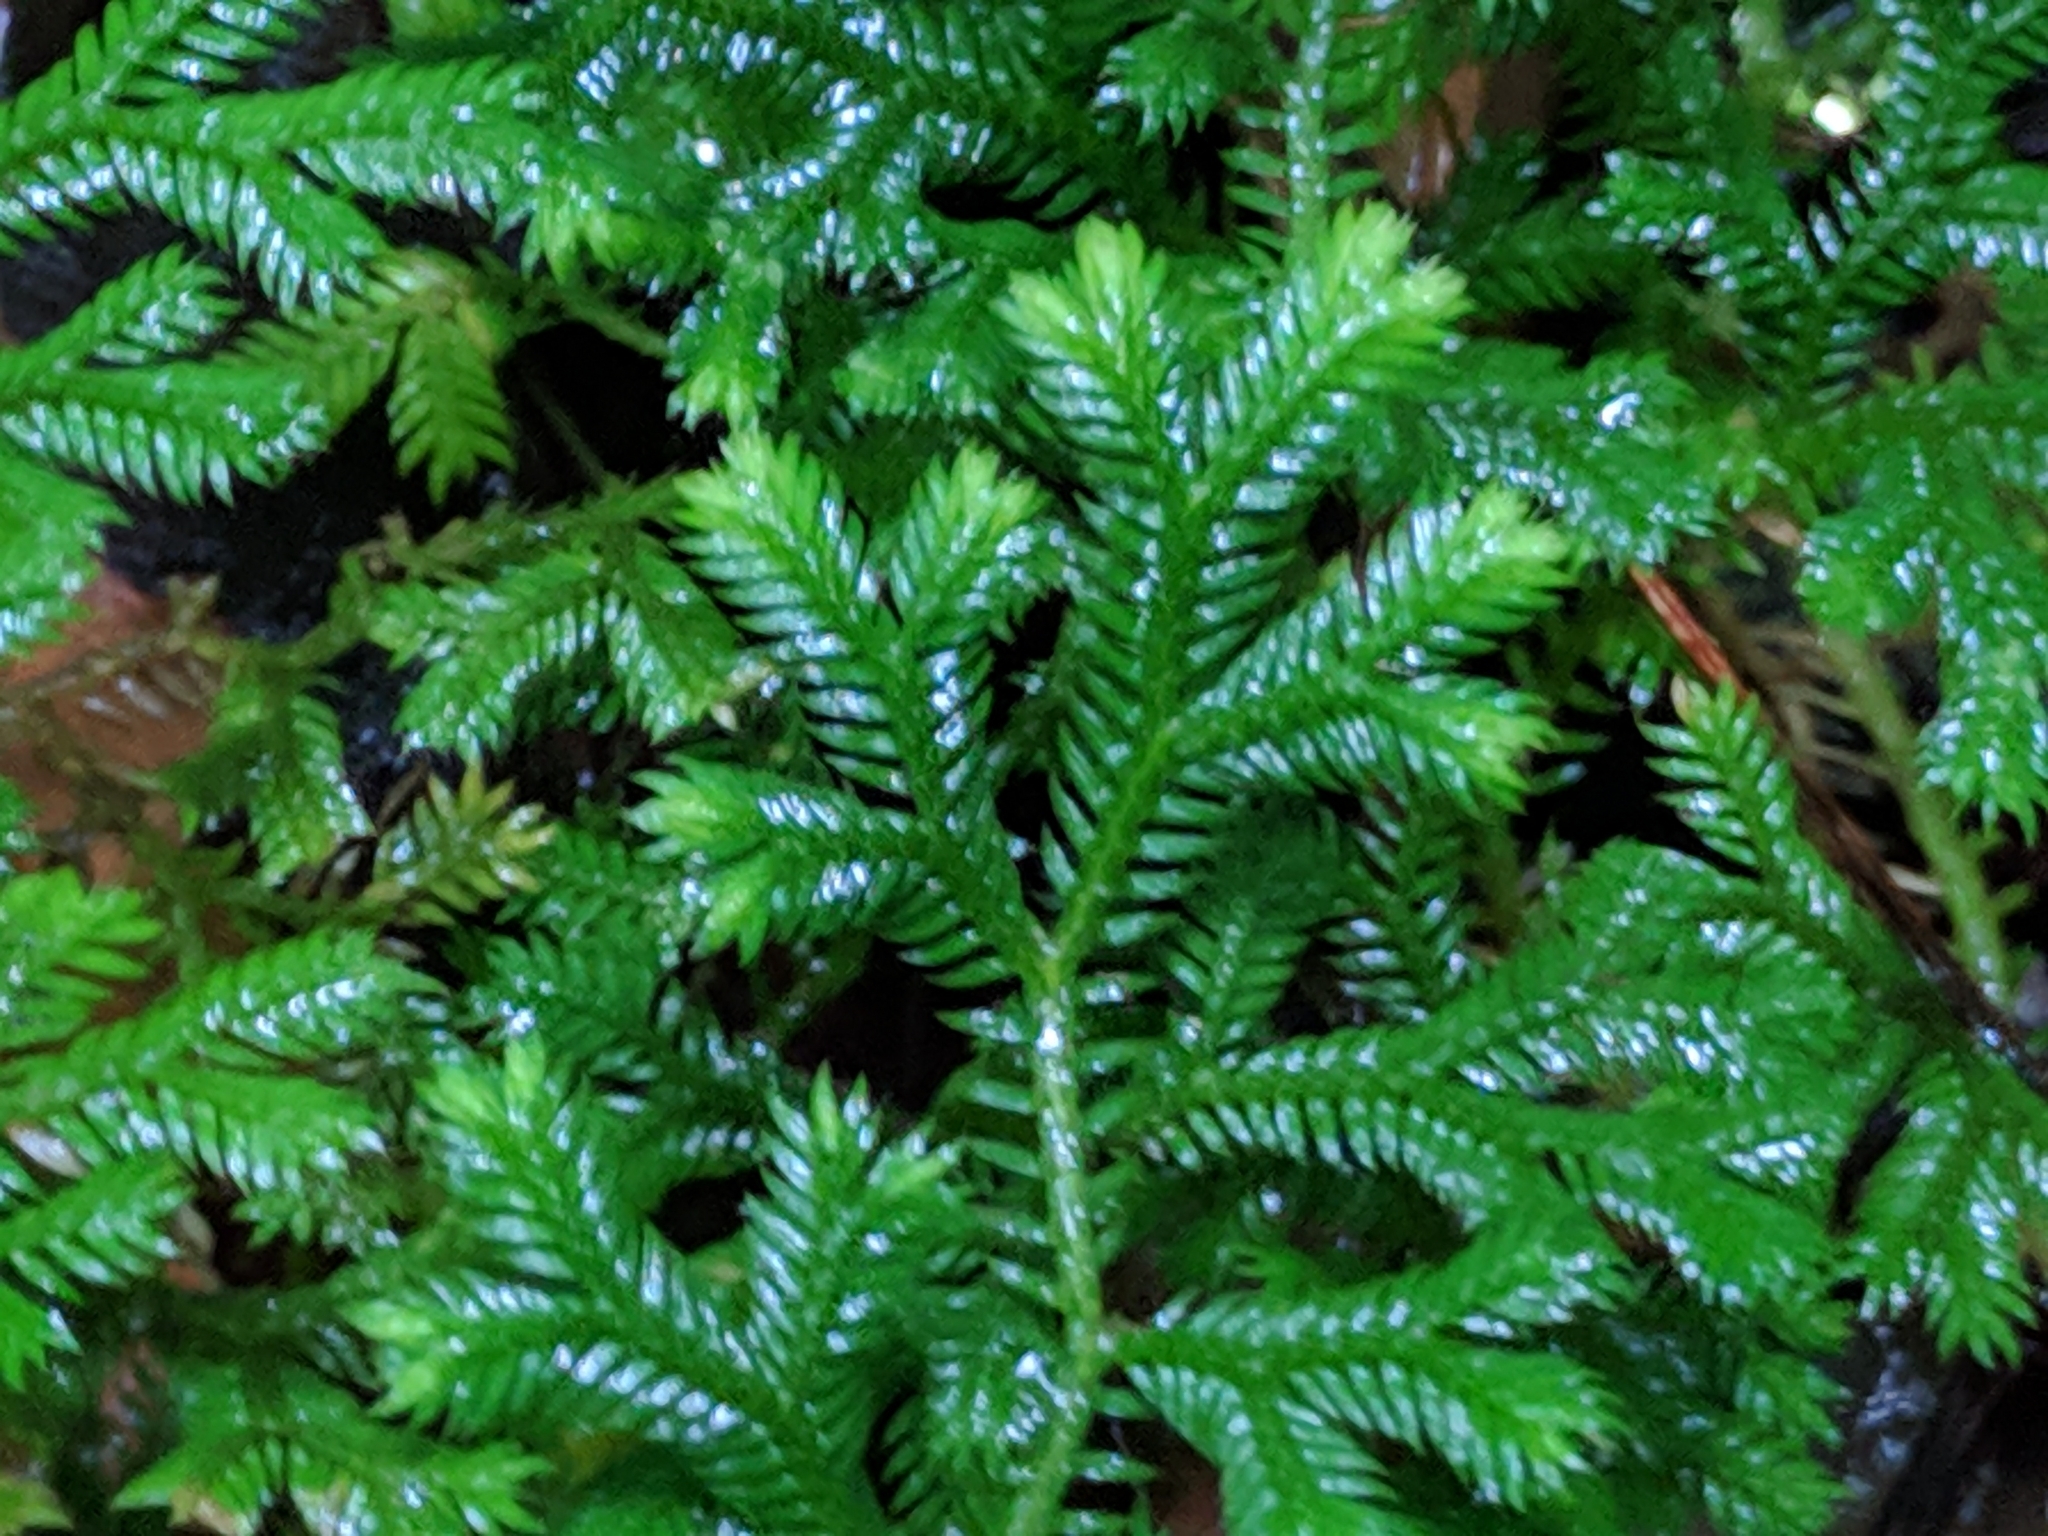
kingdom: Plantae
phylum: Tracheophyta
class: Lycopodiopsida
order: Selaginellales
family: Selaginellaceae
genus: Selaginella
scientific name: Selaginella fruticulosa
